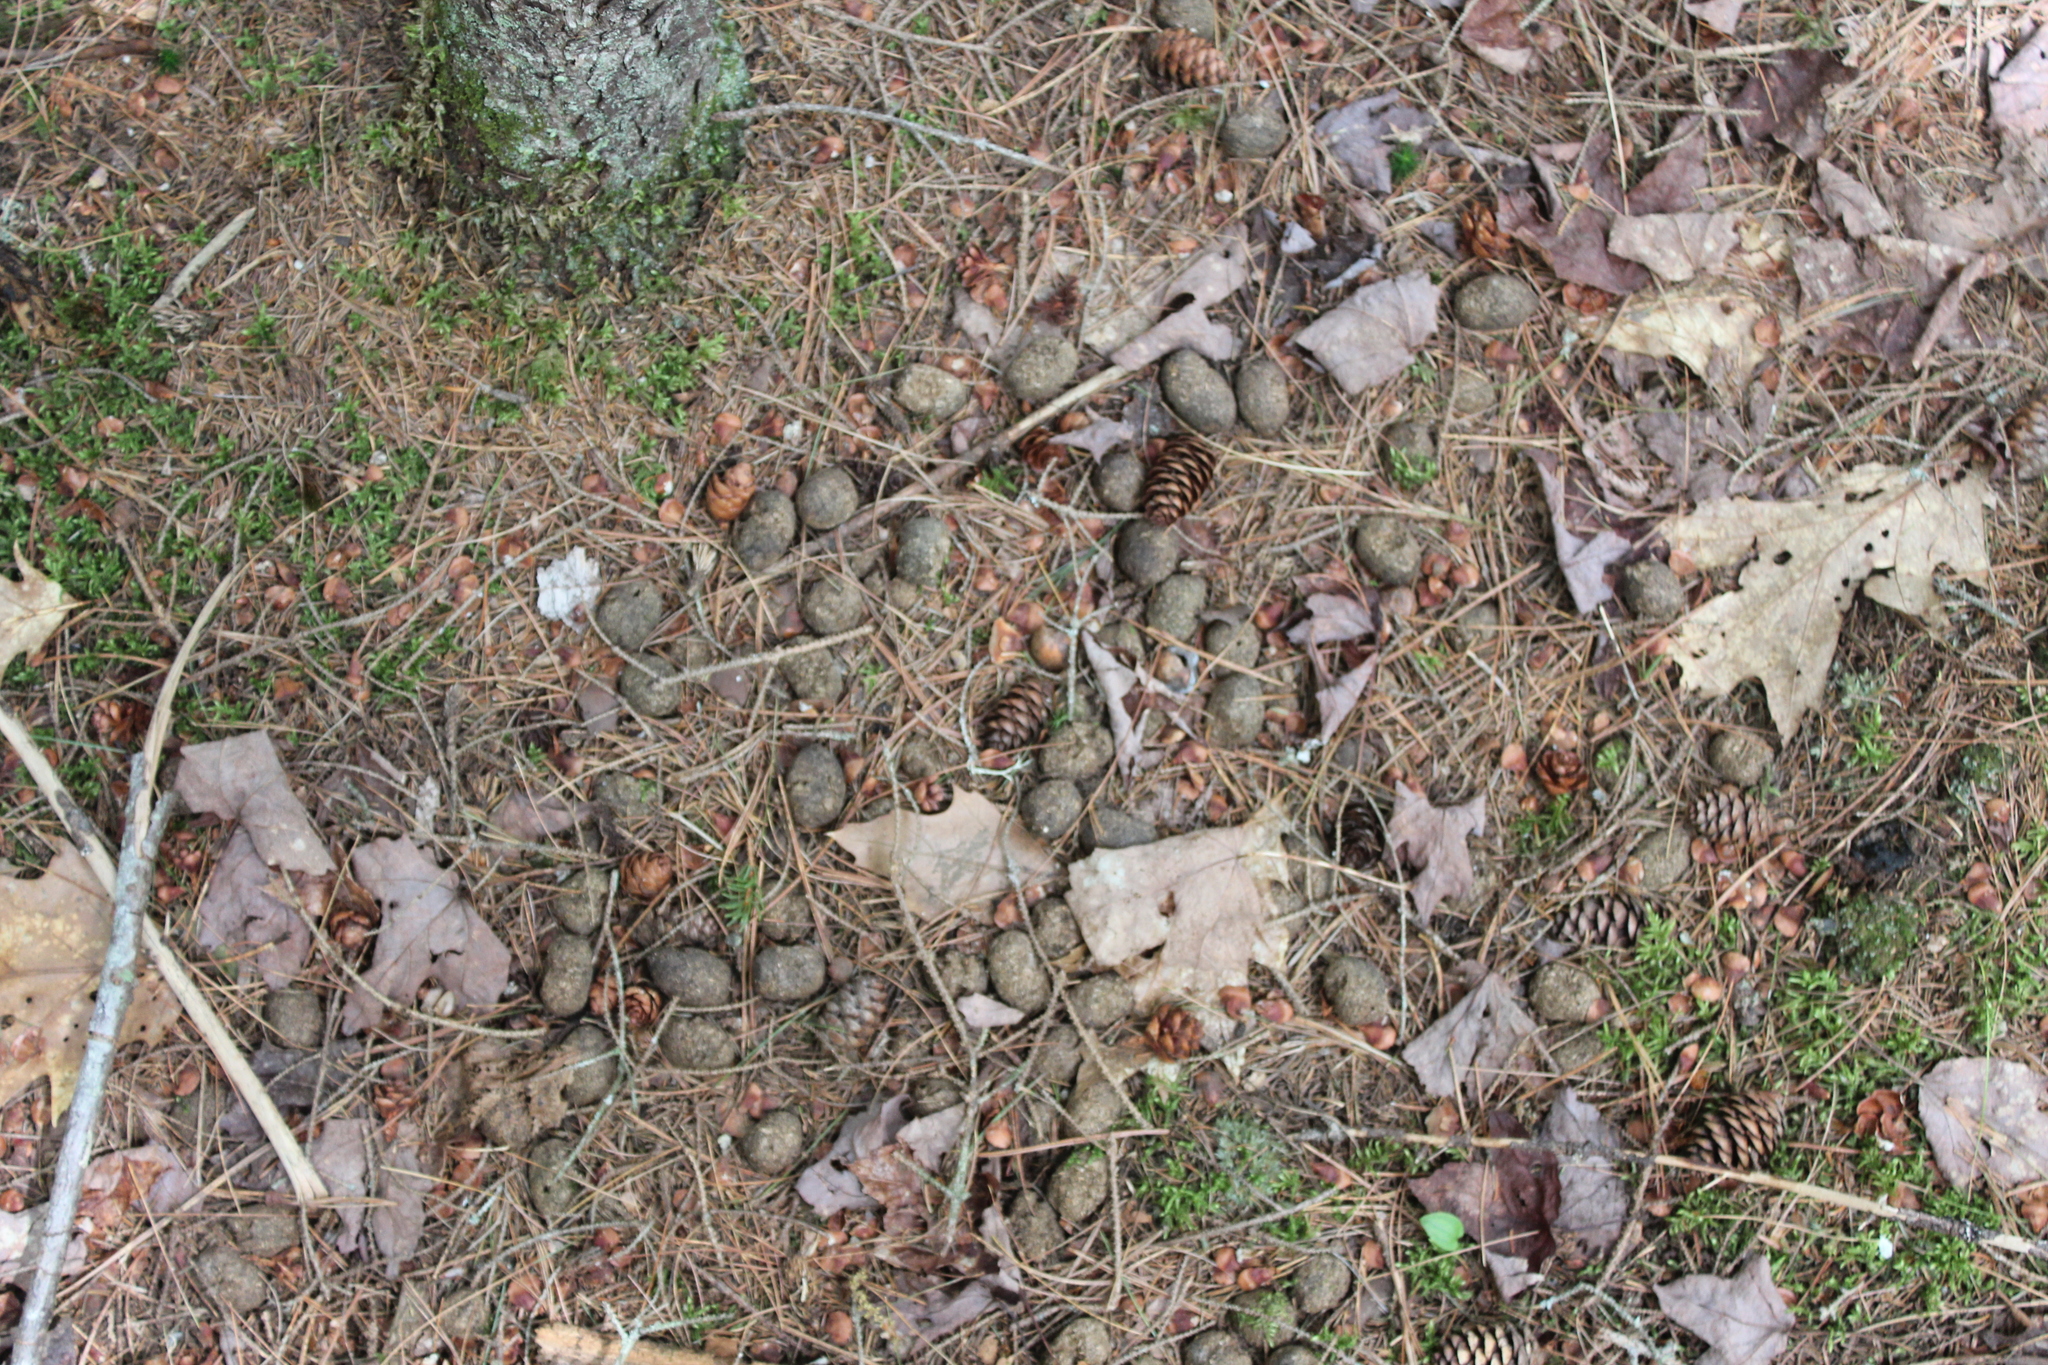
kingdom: Animalia
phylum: Chordata
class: Mammalia
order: Artiodactyla
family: Cervidae
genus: Alces
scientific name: Alces alces
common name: Moose
